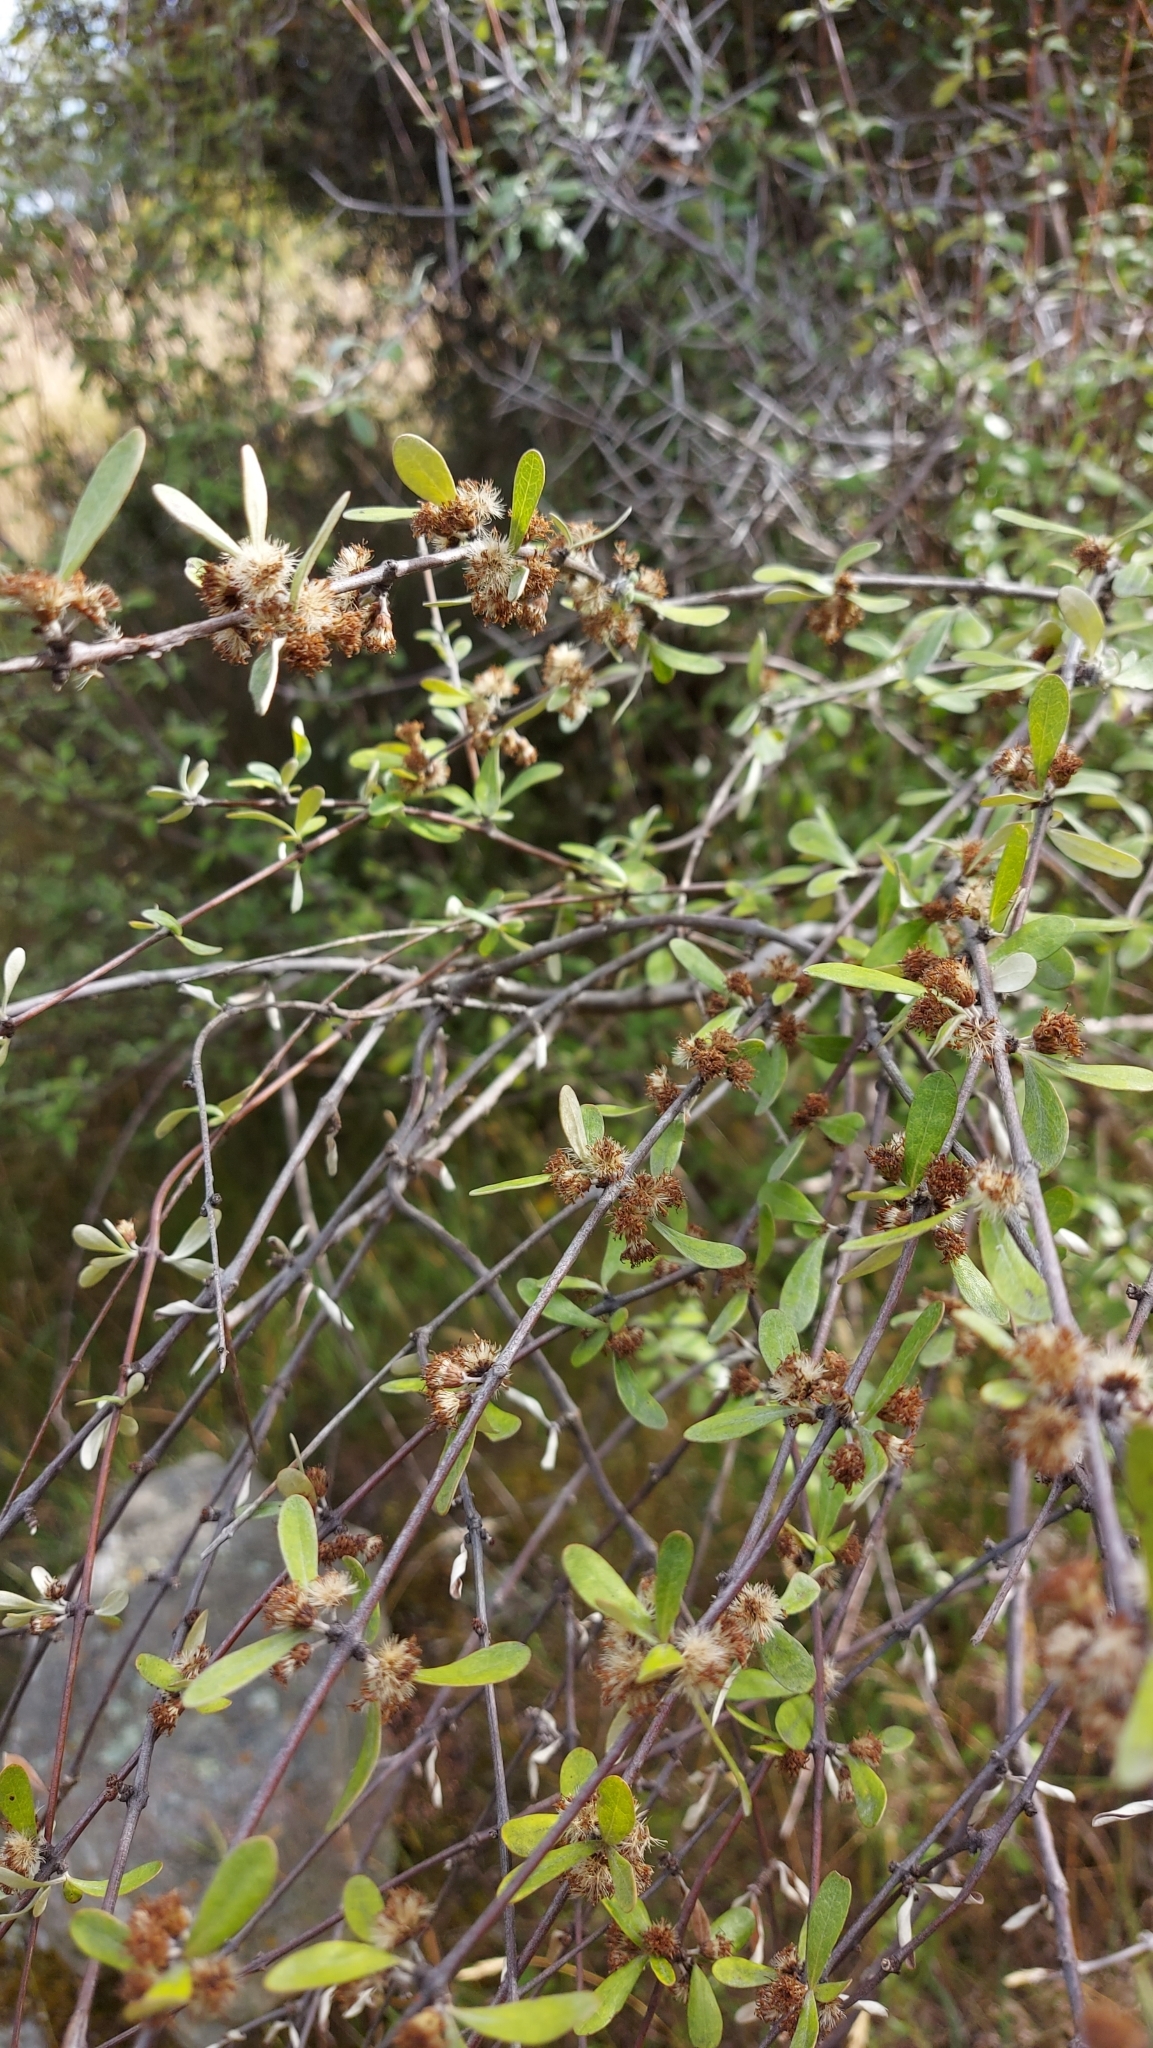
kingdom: Plantae
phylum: Tracheophyta
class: Magnoliopsida
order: Asterales
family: Asteraceae
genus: Olearia
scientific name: Olearia odorata
